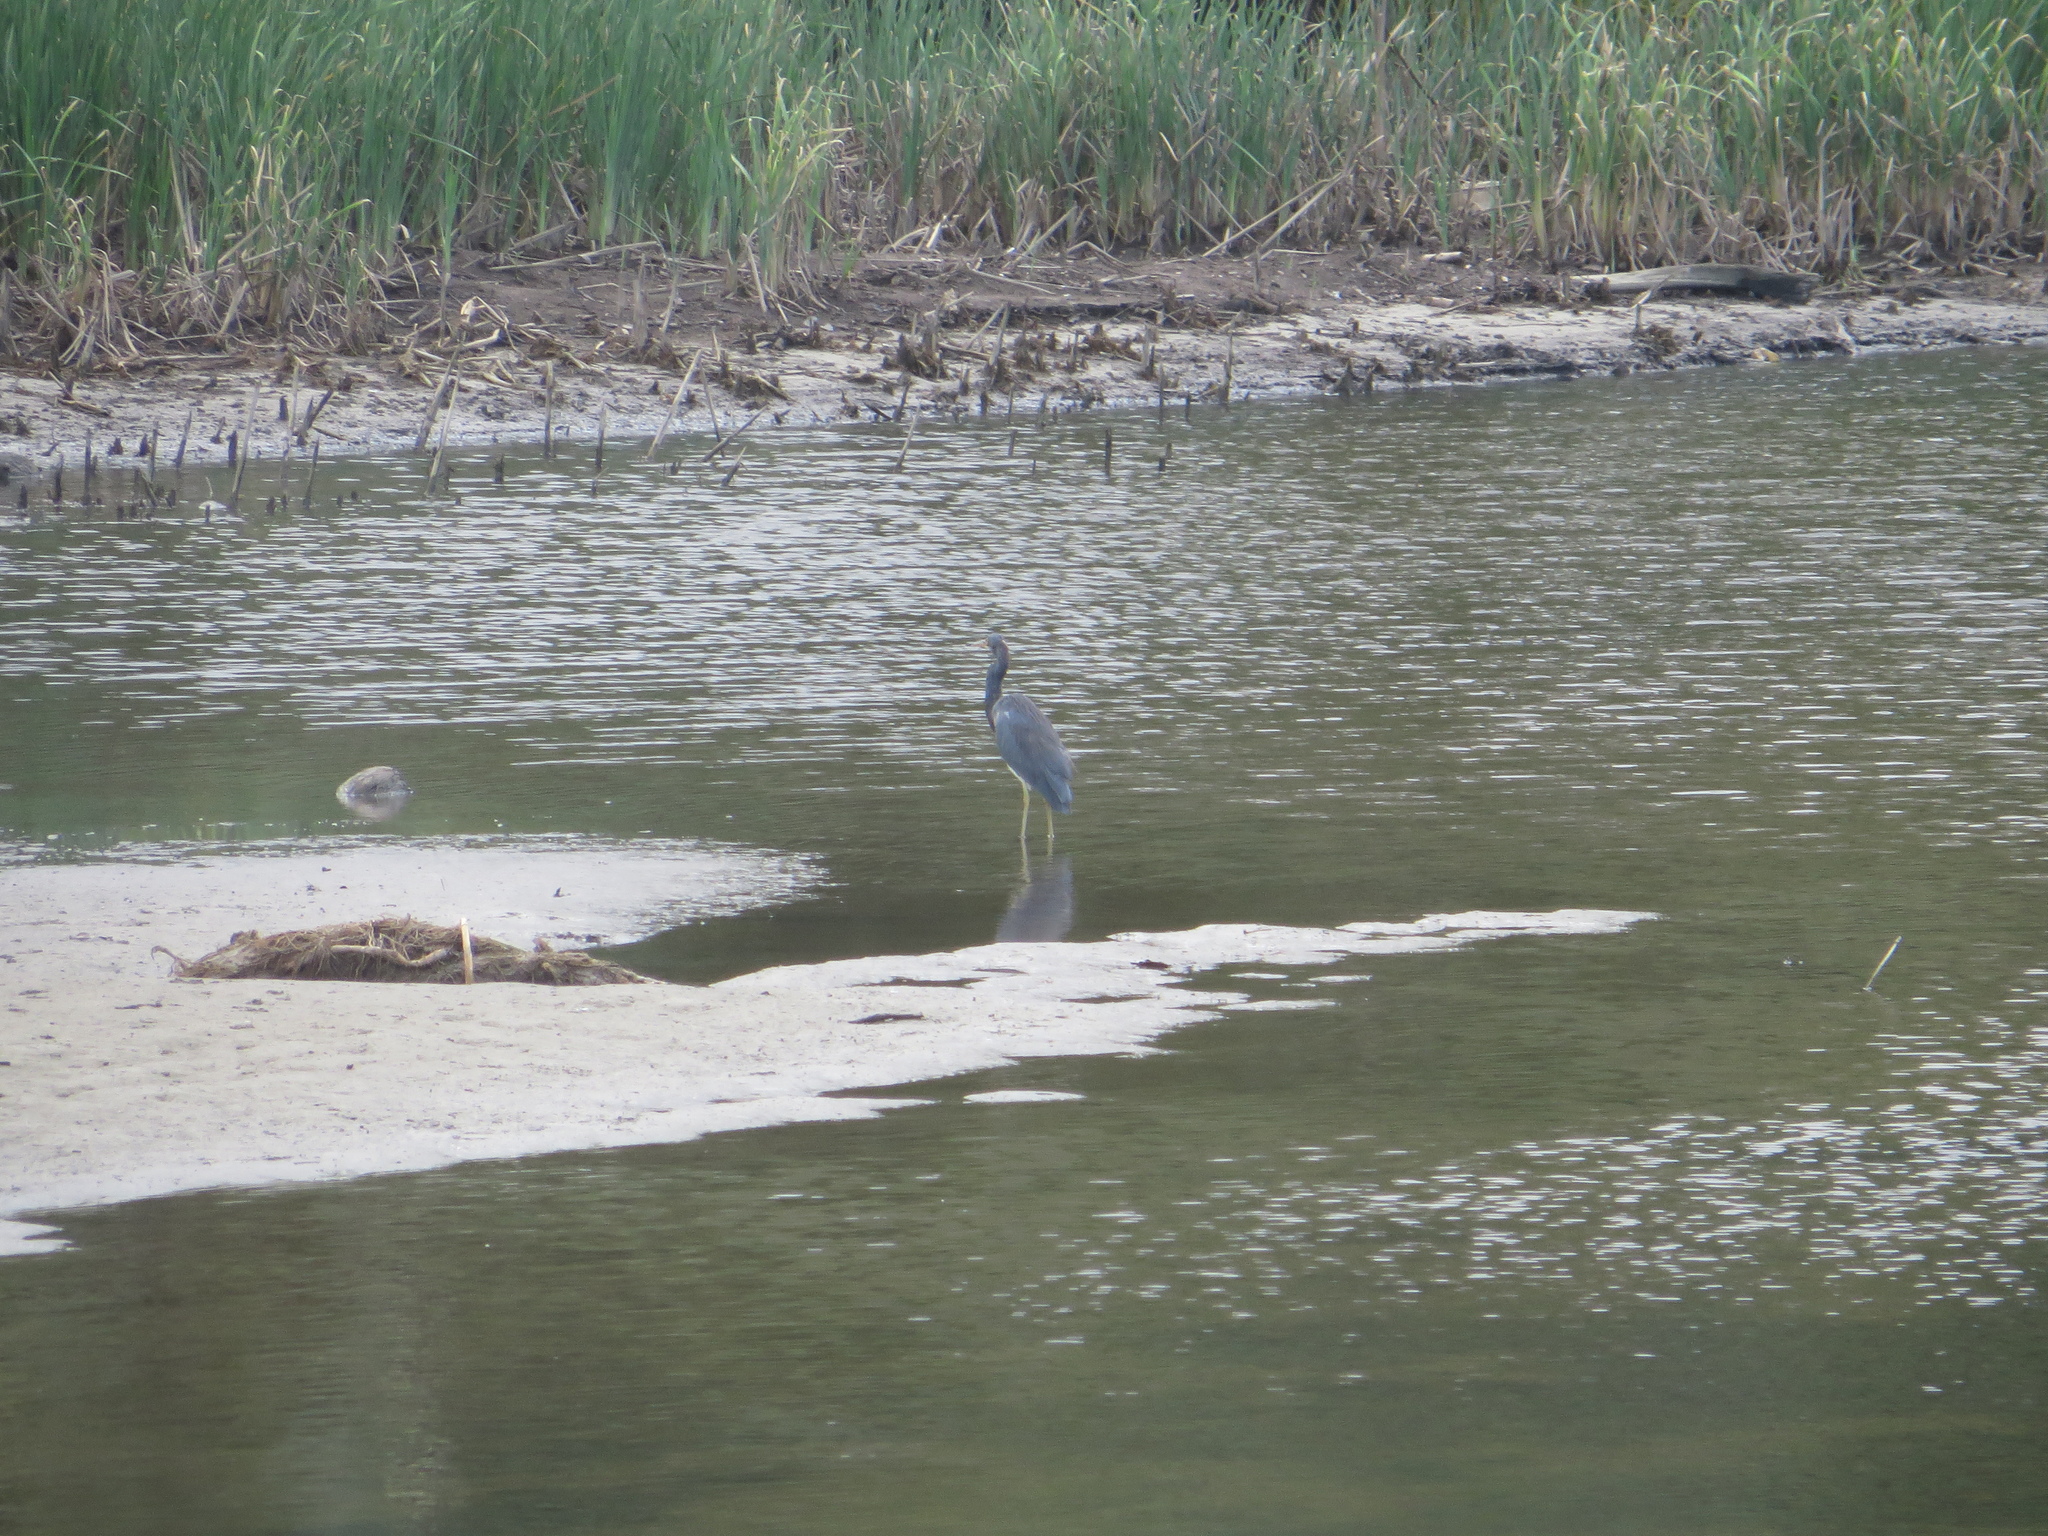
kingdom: Animalia
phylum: Chordata
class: Aves
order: Pelecaniformes
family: Ardeidae
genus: Egretta
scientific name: Egretta tricolor
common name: Tricolored heron
